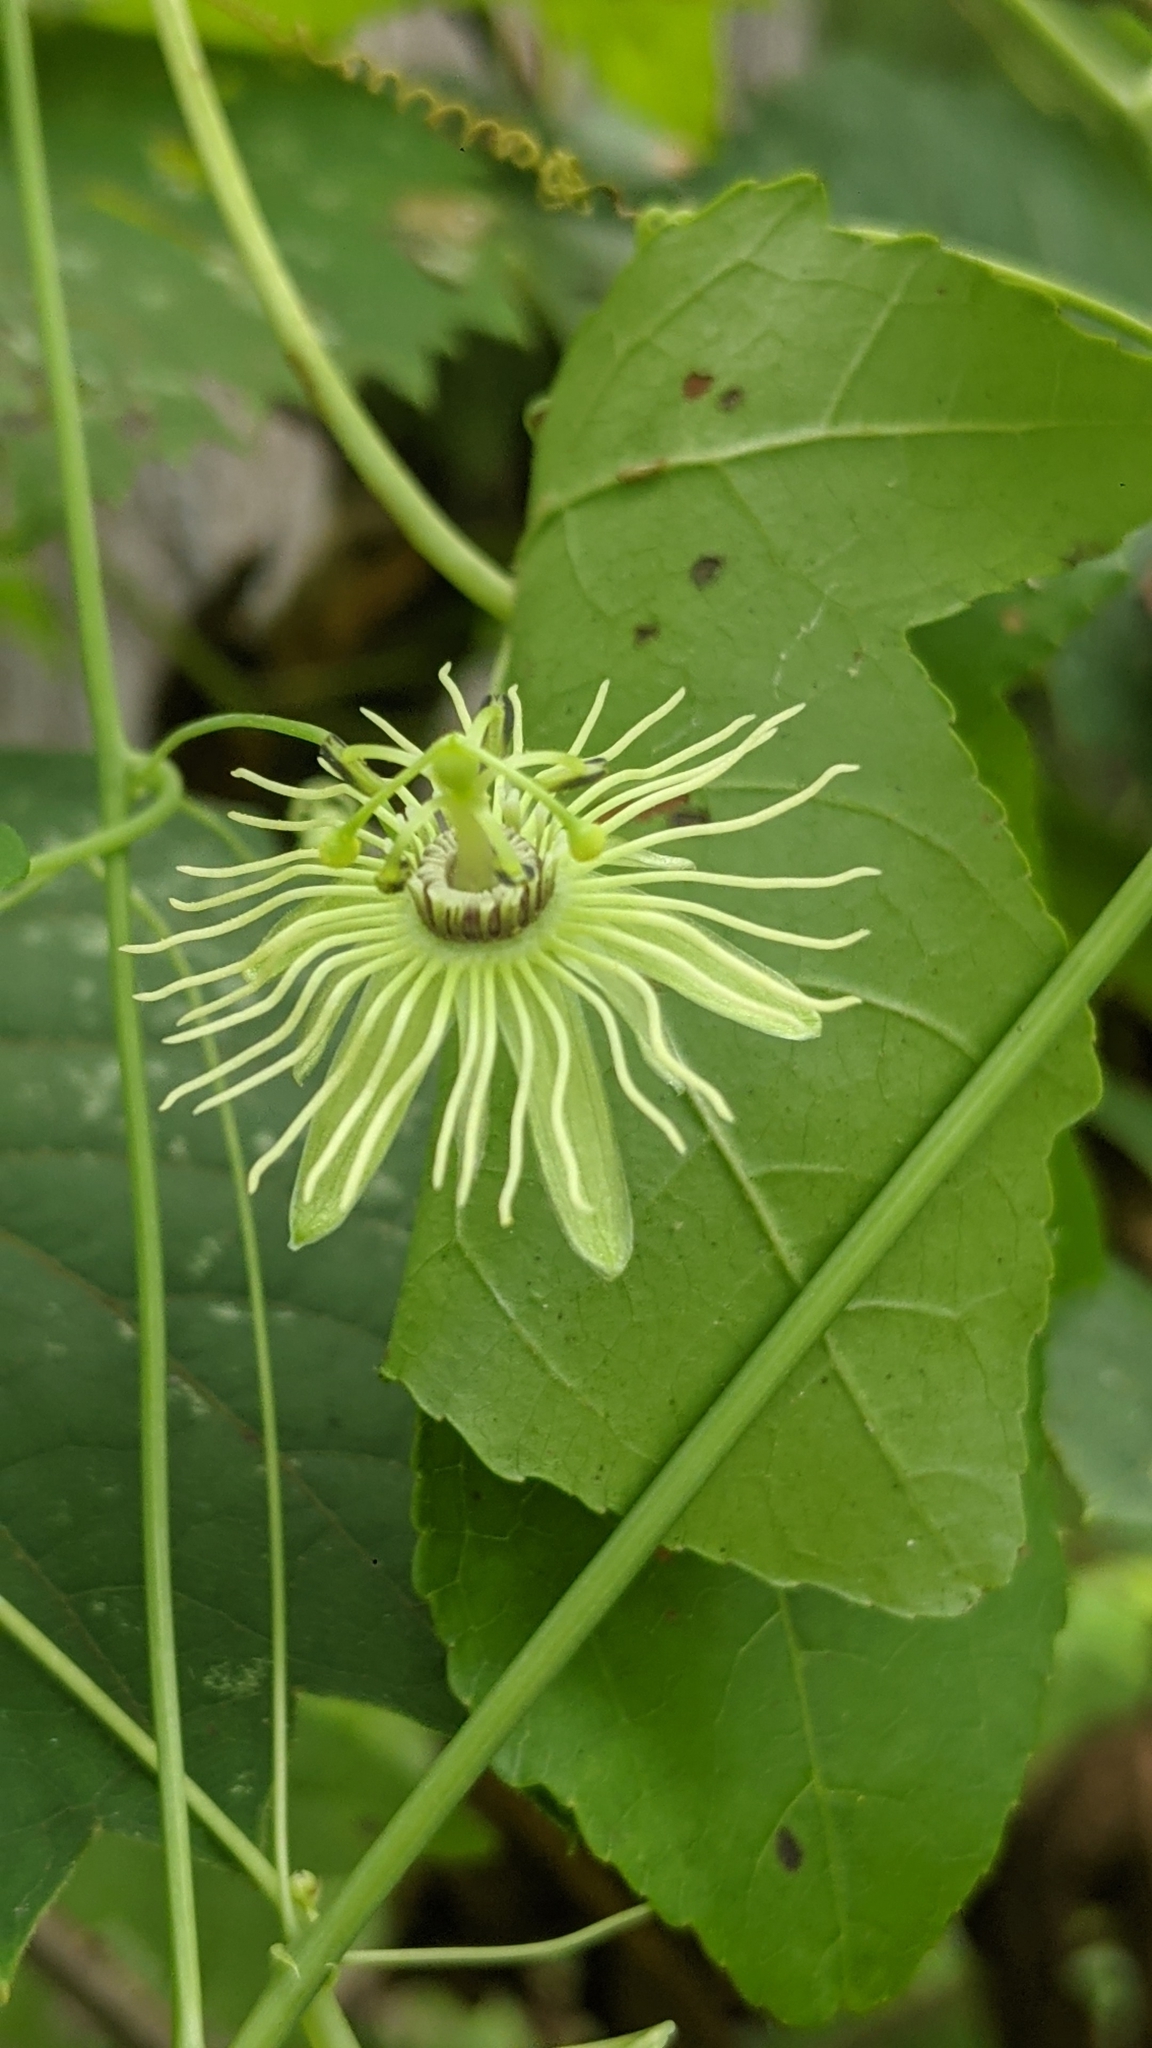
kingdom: Plantae
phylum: Tracheophyta
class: Magnoliopsida
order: Malpighiales
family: Passifloraceae
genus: Passiflora
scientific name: Passiflora lutea
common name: Yellow passionflower
